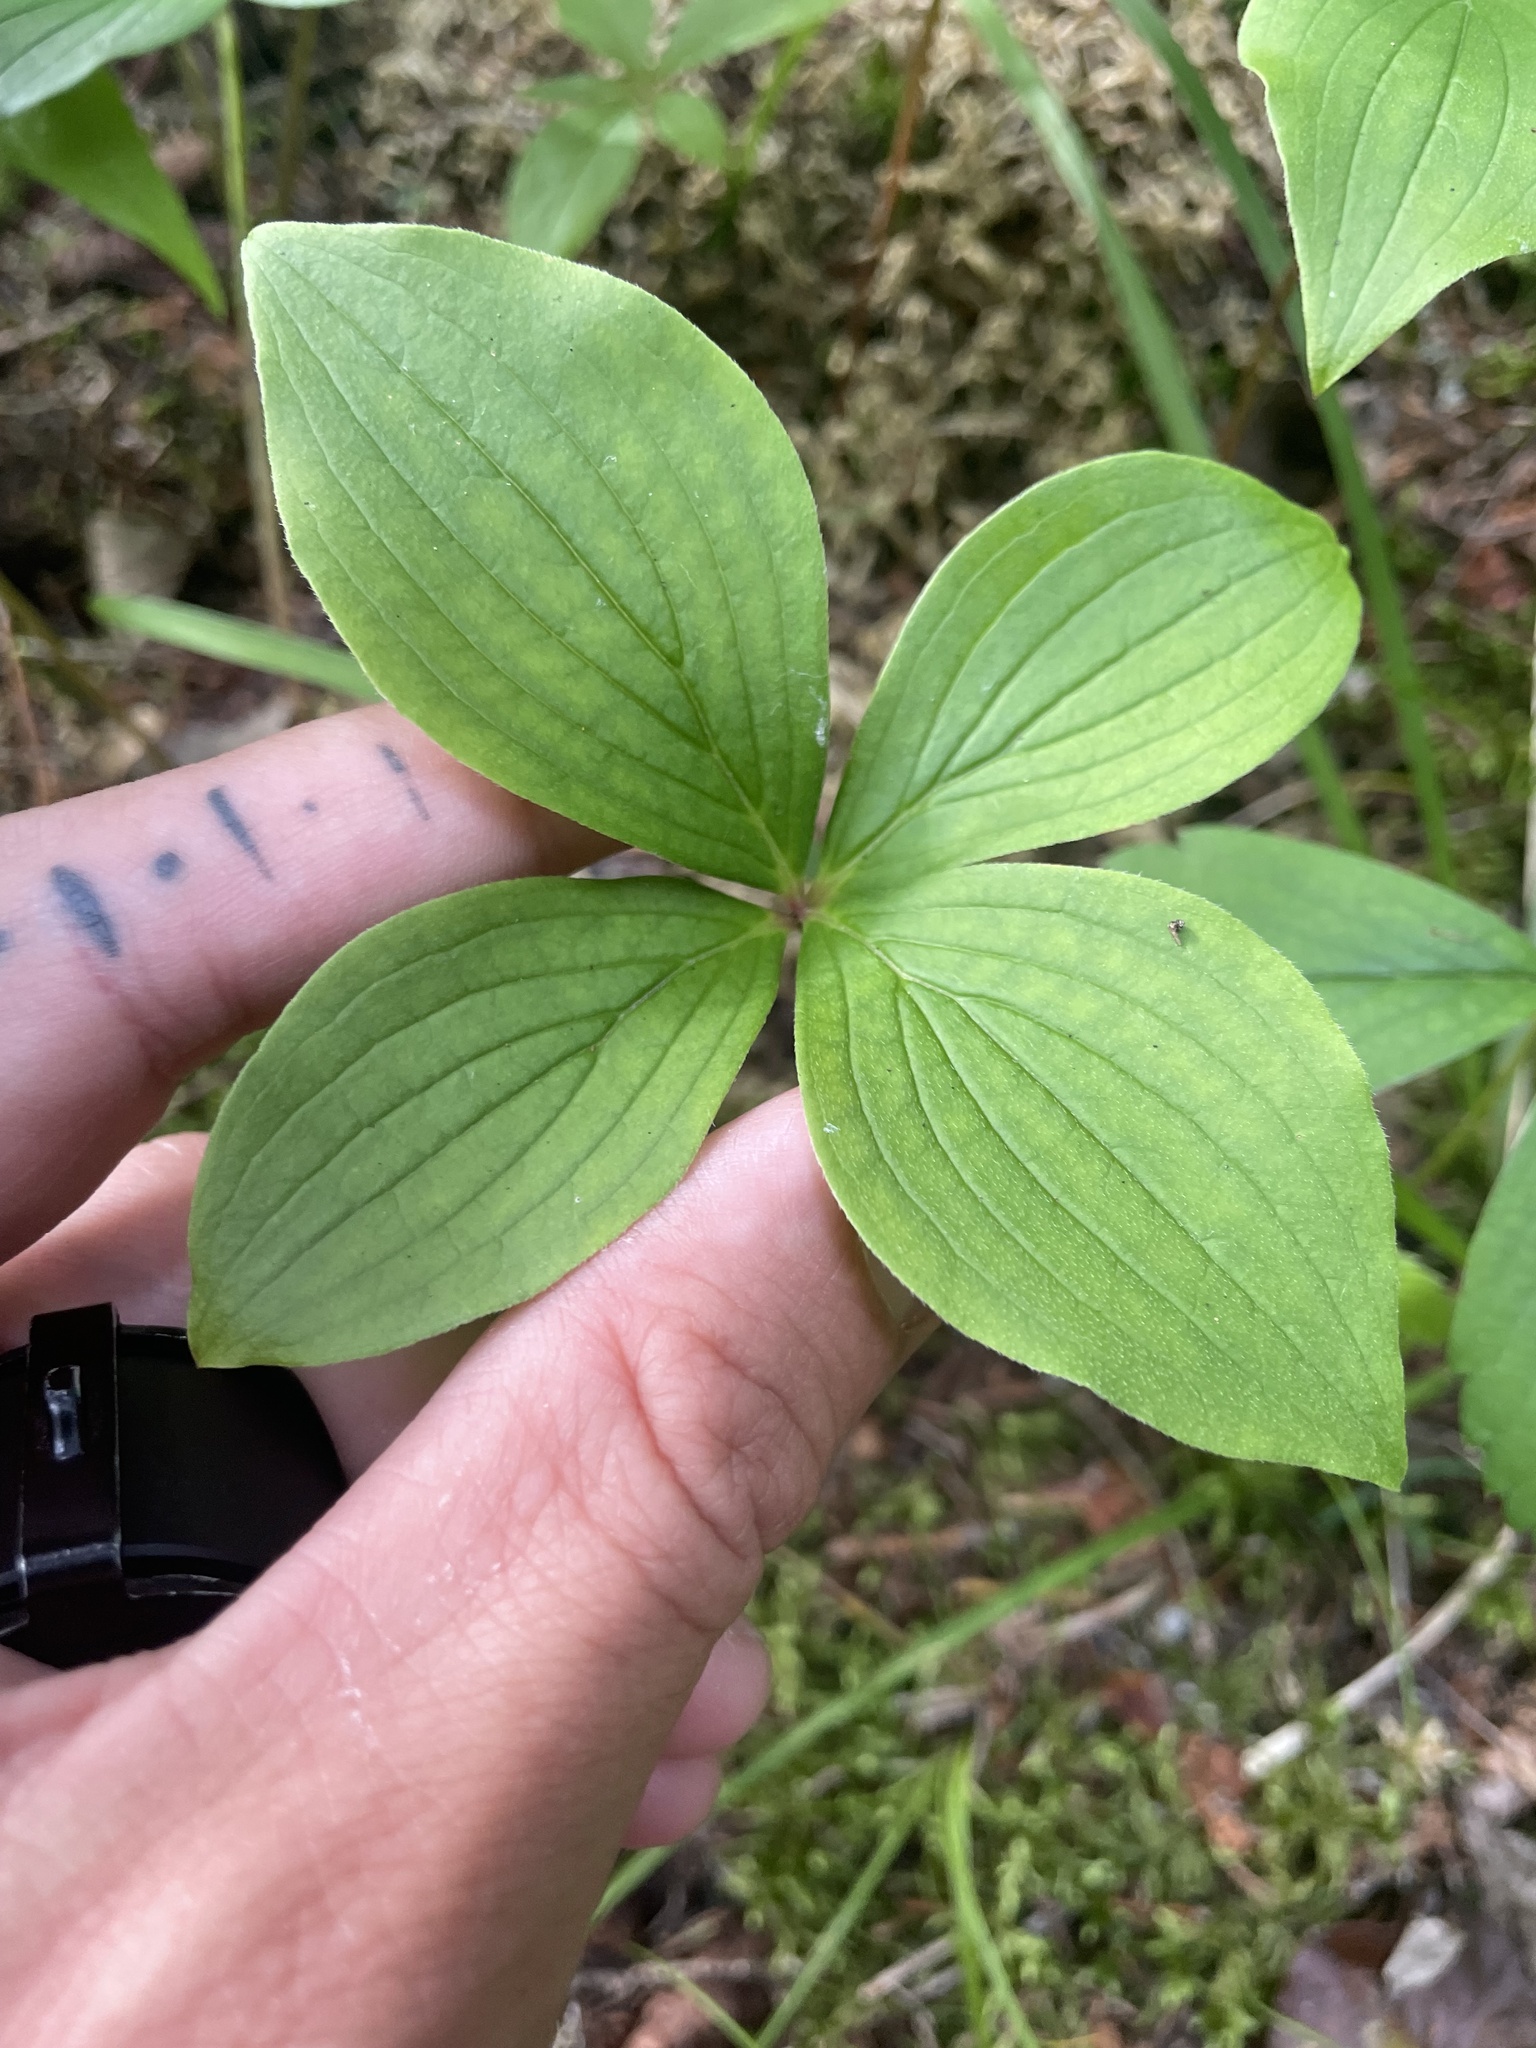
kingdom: Plantae
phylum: Tracheophyta
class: Magnoliopsida
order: Cornales
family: Cornaceae
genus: Cornus
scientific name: Cornus canadensis
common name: Creeping dogwood
